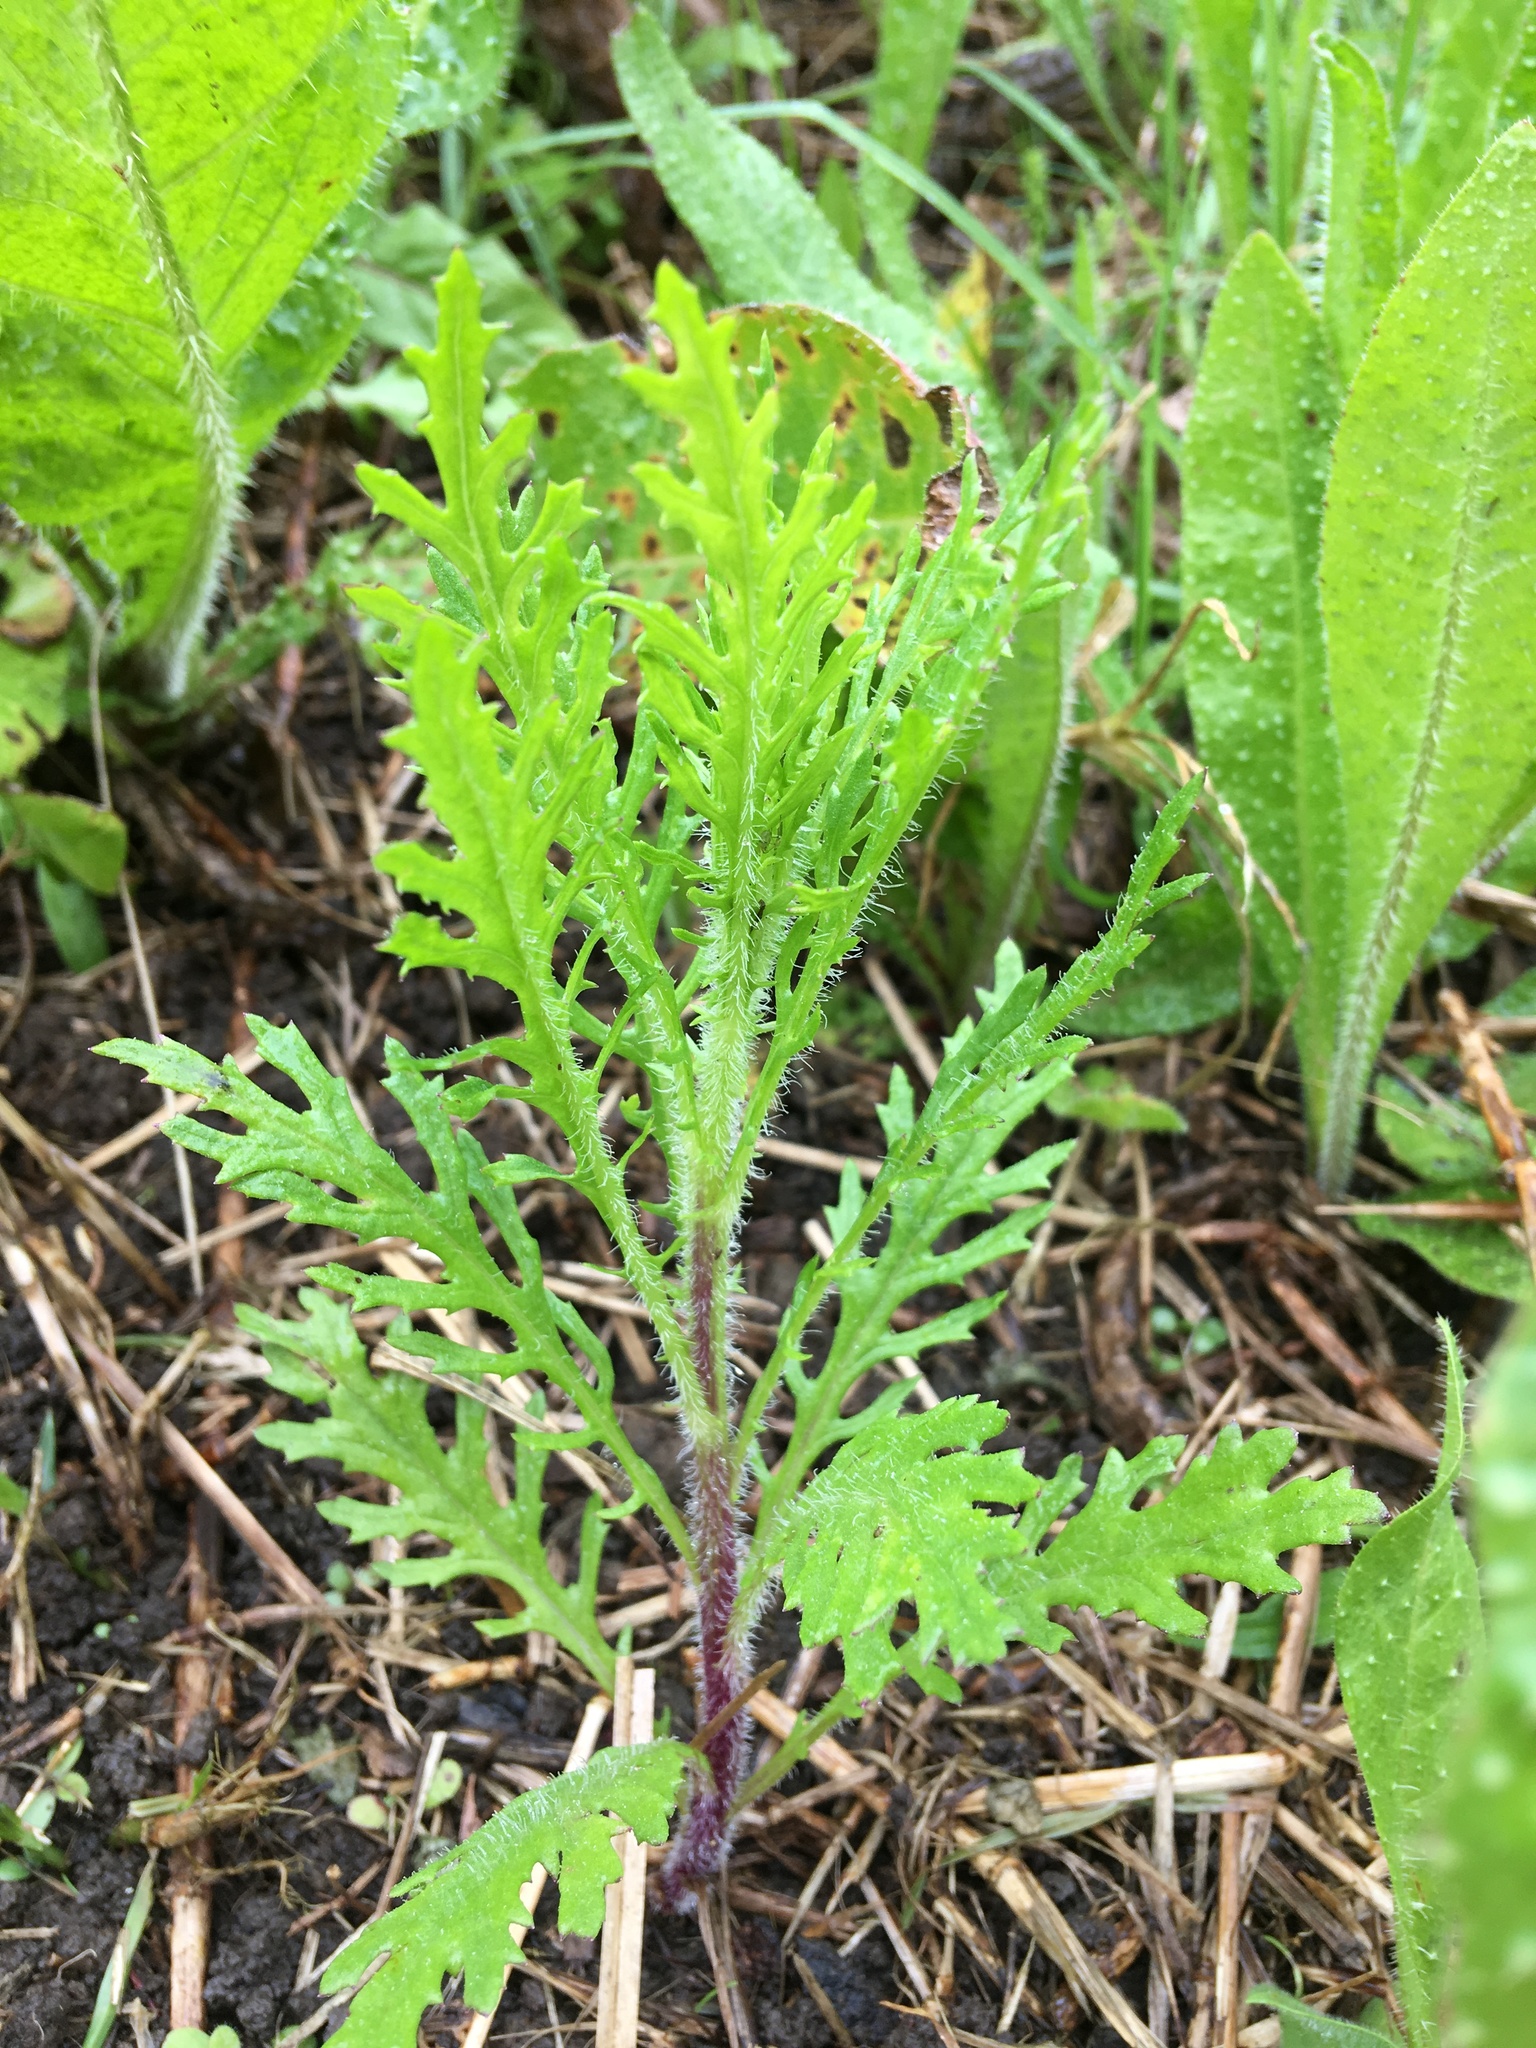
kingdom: Plantae
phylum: Tracheophyta
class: Magnoliopsida
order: Asterales
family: Asteraceae
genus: Senecio
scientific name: Senecio esleri
